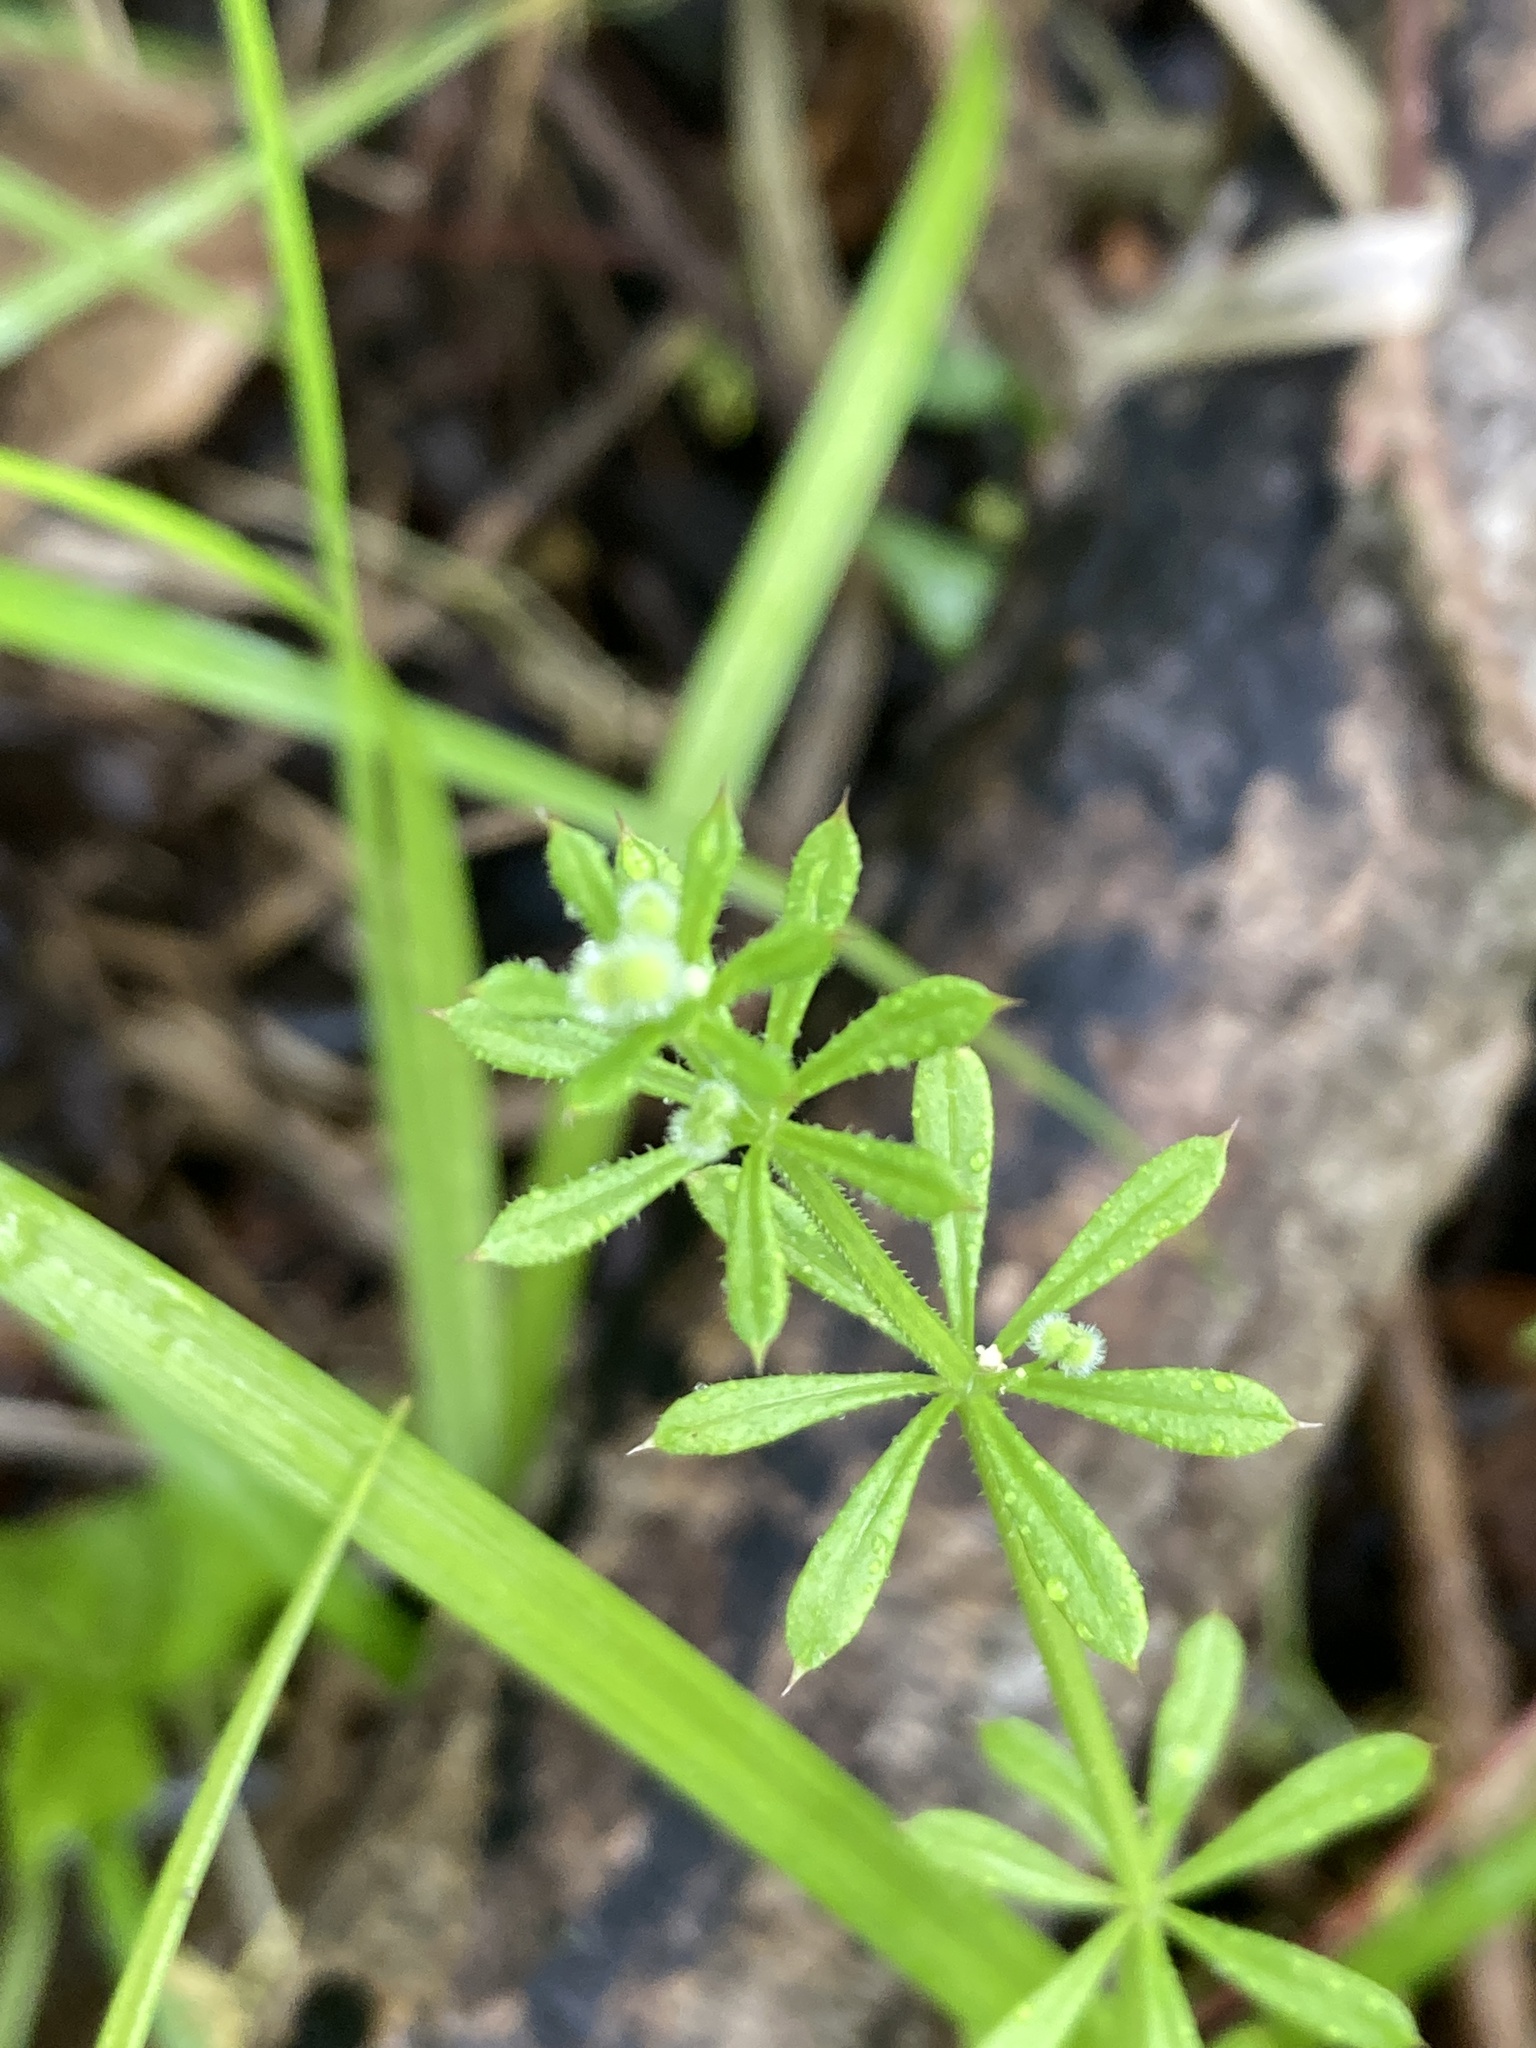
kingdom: Plantae
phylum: Tracheophyta
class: Magnoliopsida
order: Gentianales
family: Rubiaceae
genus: Galium
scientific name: Galium aparine
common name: Cleavers
